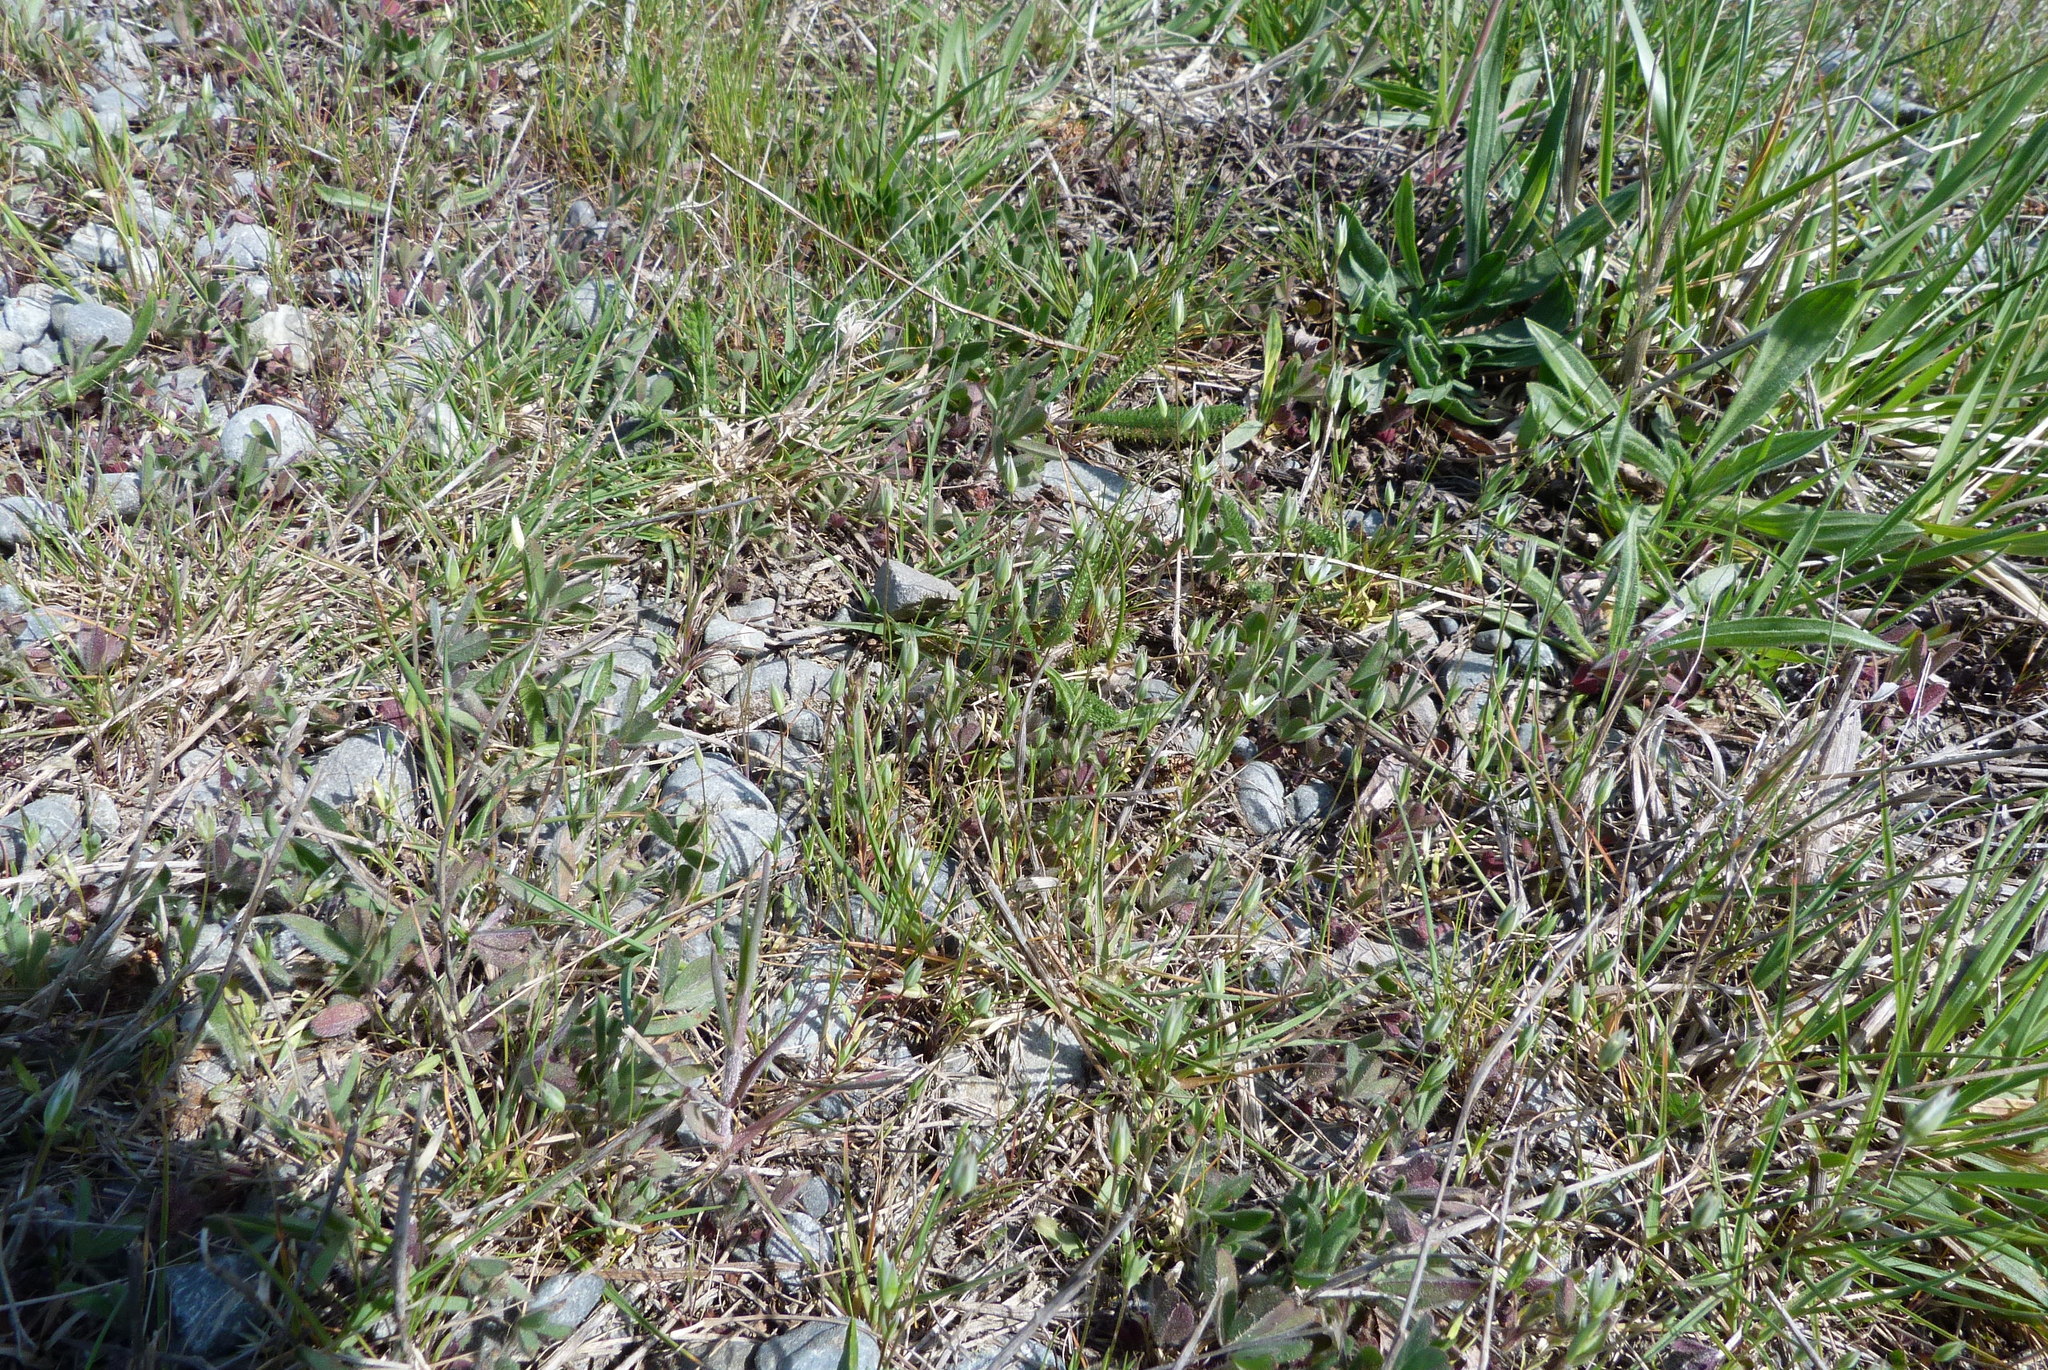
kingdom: Plantae
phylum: Tracheophyta
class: Magnoliopsida
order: Caryophyllales
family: Caryophyllaceae
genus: Moenchia
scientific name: Moenchia erecta
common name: Upright chickweed
